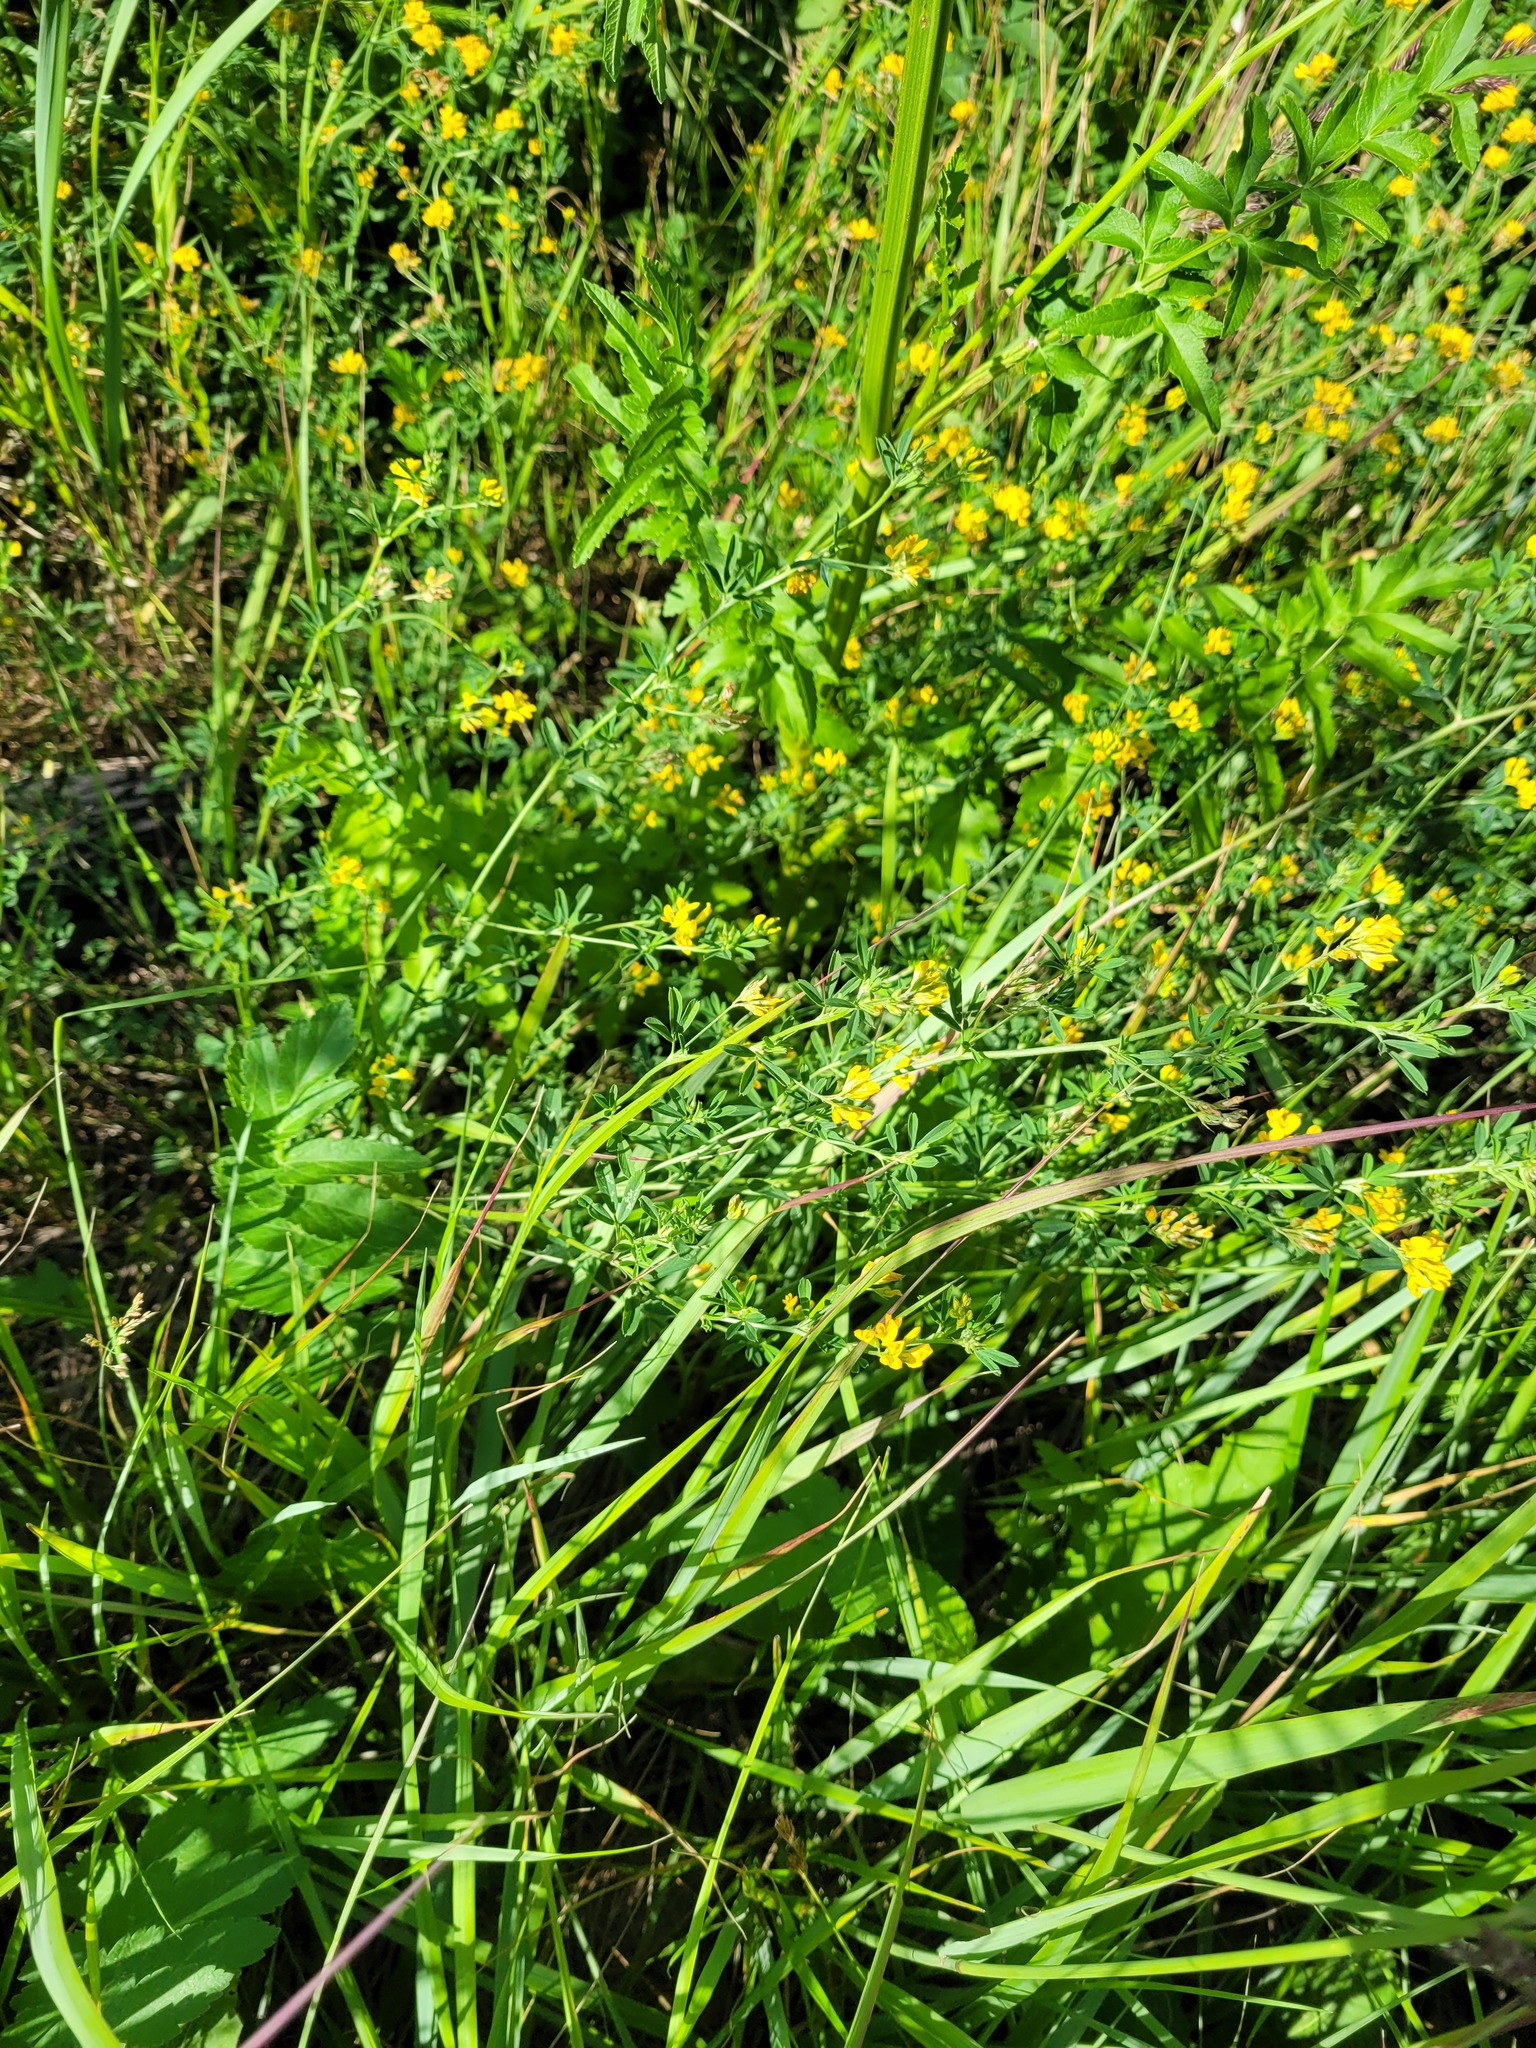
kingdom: Plantae
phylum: Tracheophyta
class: Magnoliopsida
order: Fabales
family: Fabaceae
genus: Medicago
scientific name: Medicago falcata
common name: Sickle medick
